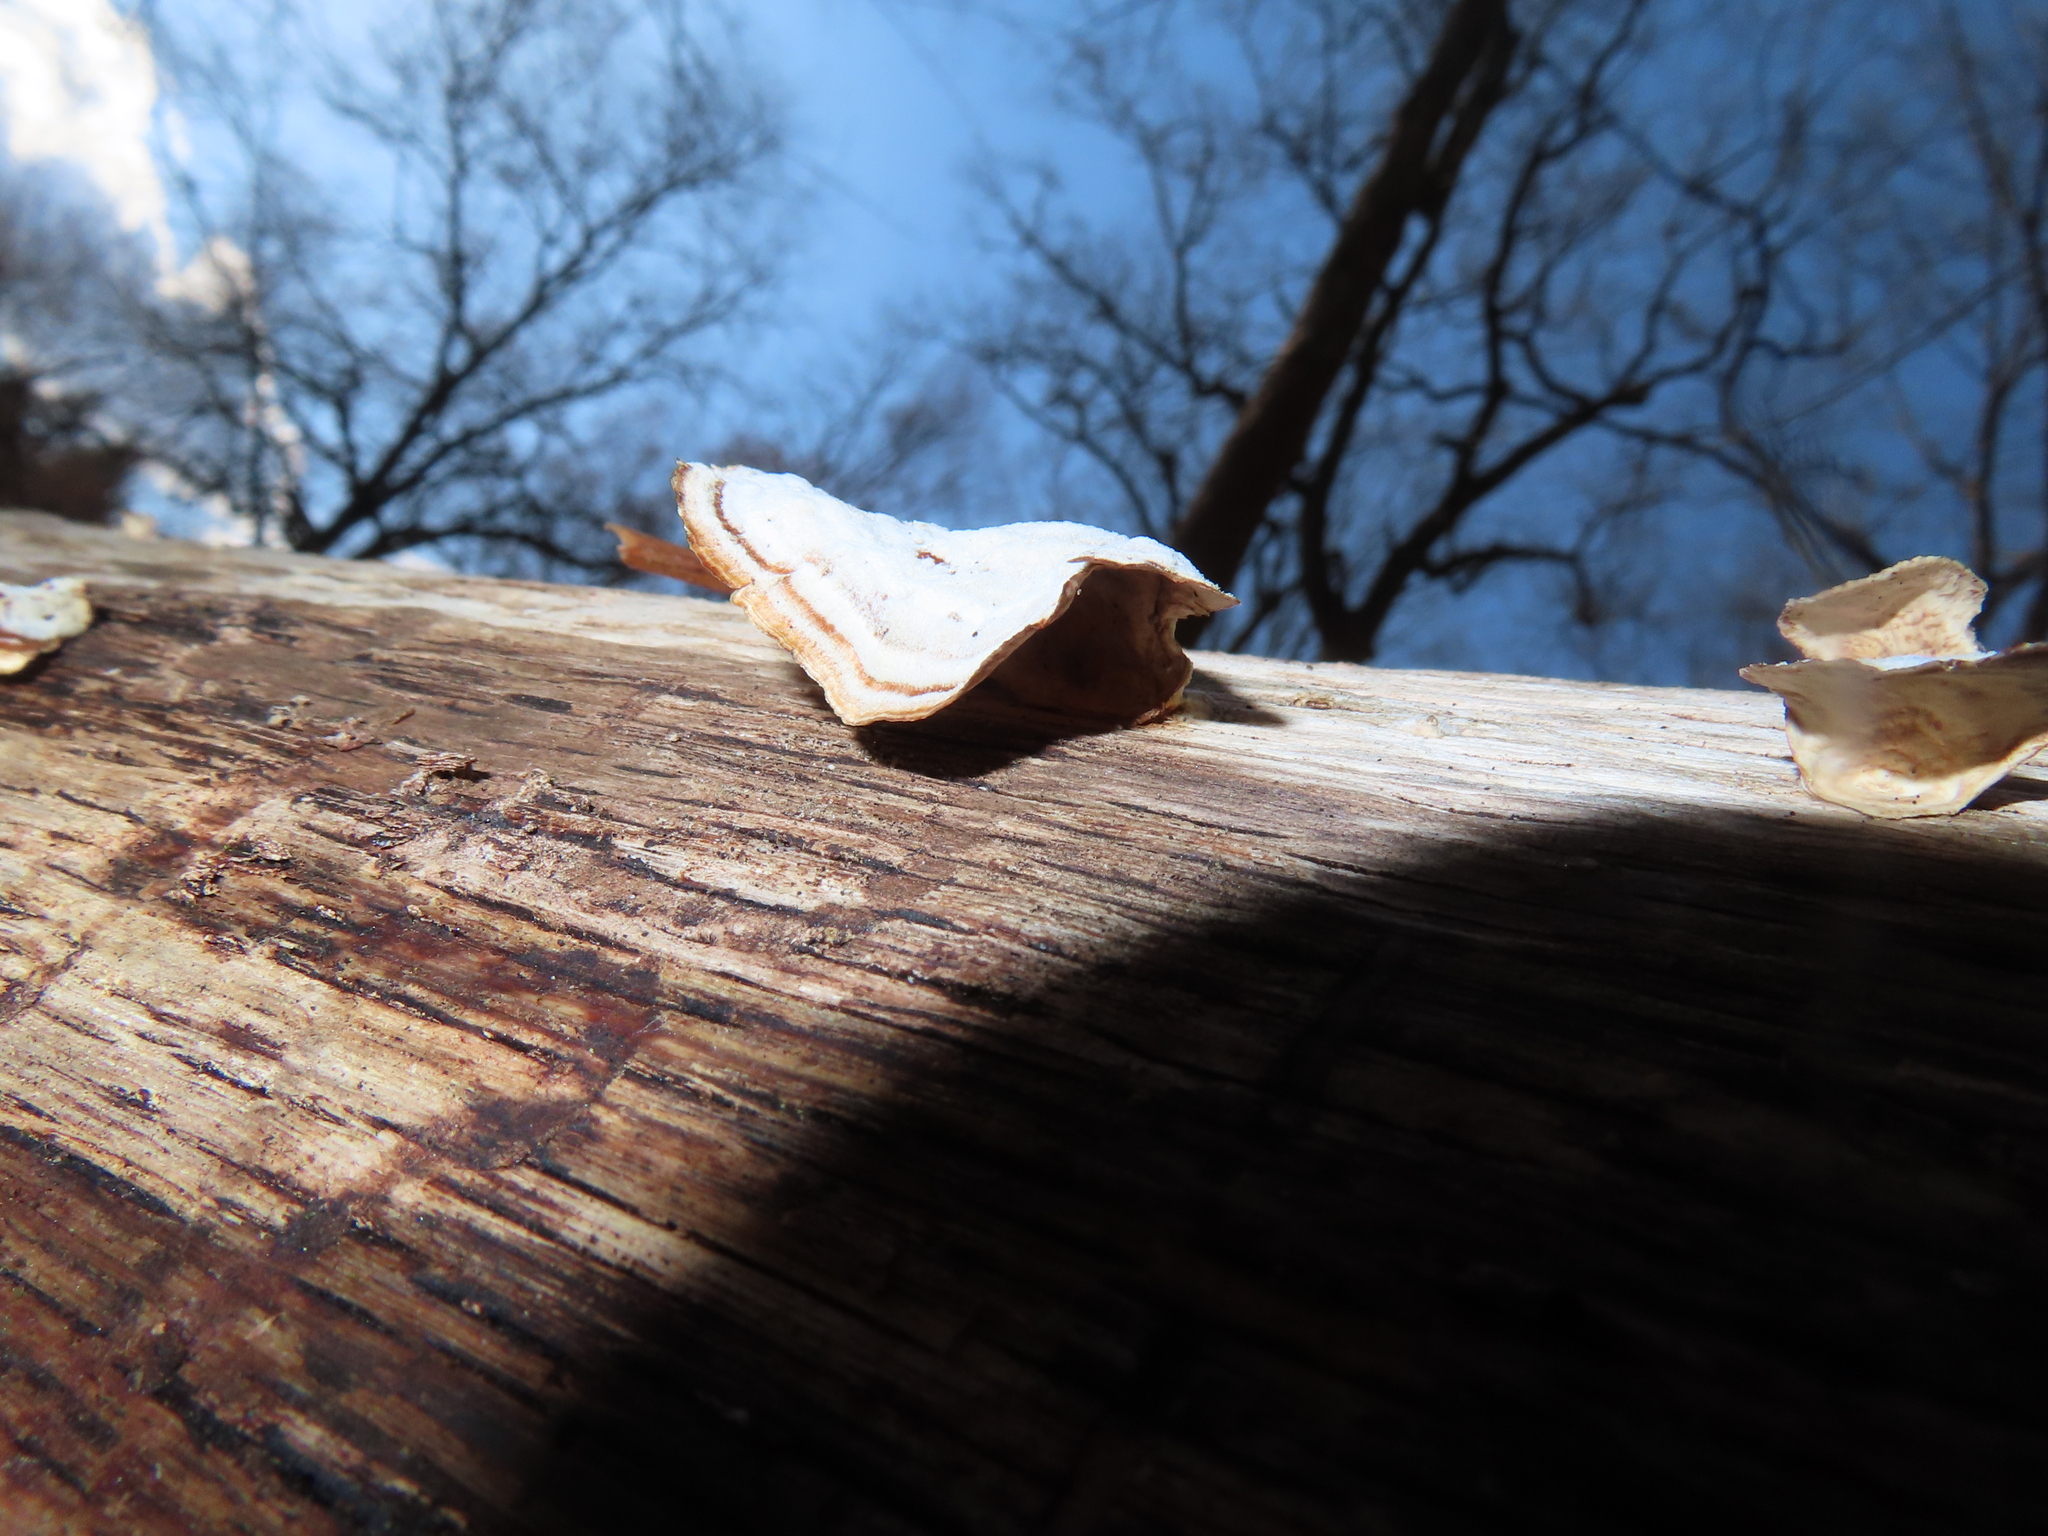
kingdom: Fungi
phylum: Basidiomycota
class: Agaricomycetes
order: Russulales
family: Stereaceae
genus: Stereum
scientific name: Stereum lobatum
